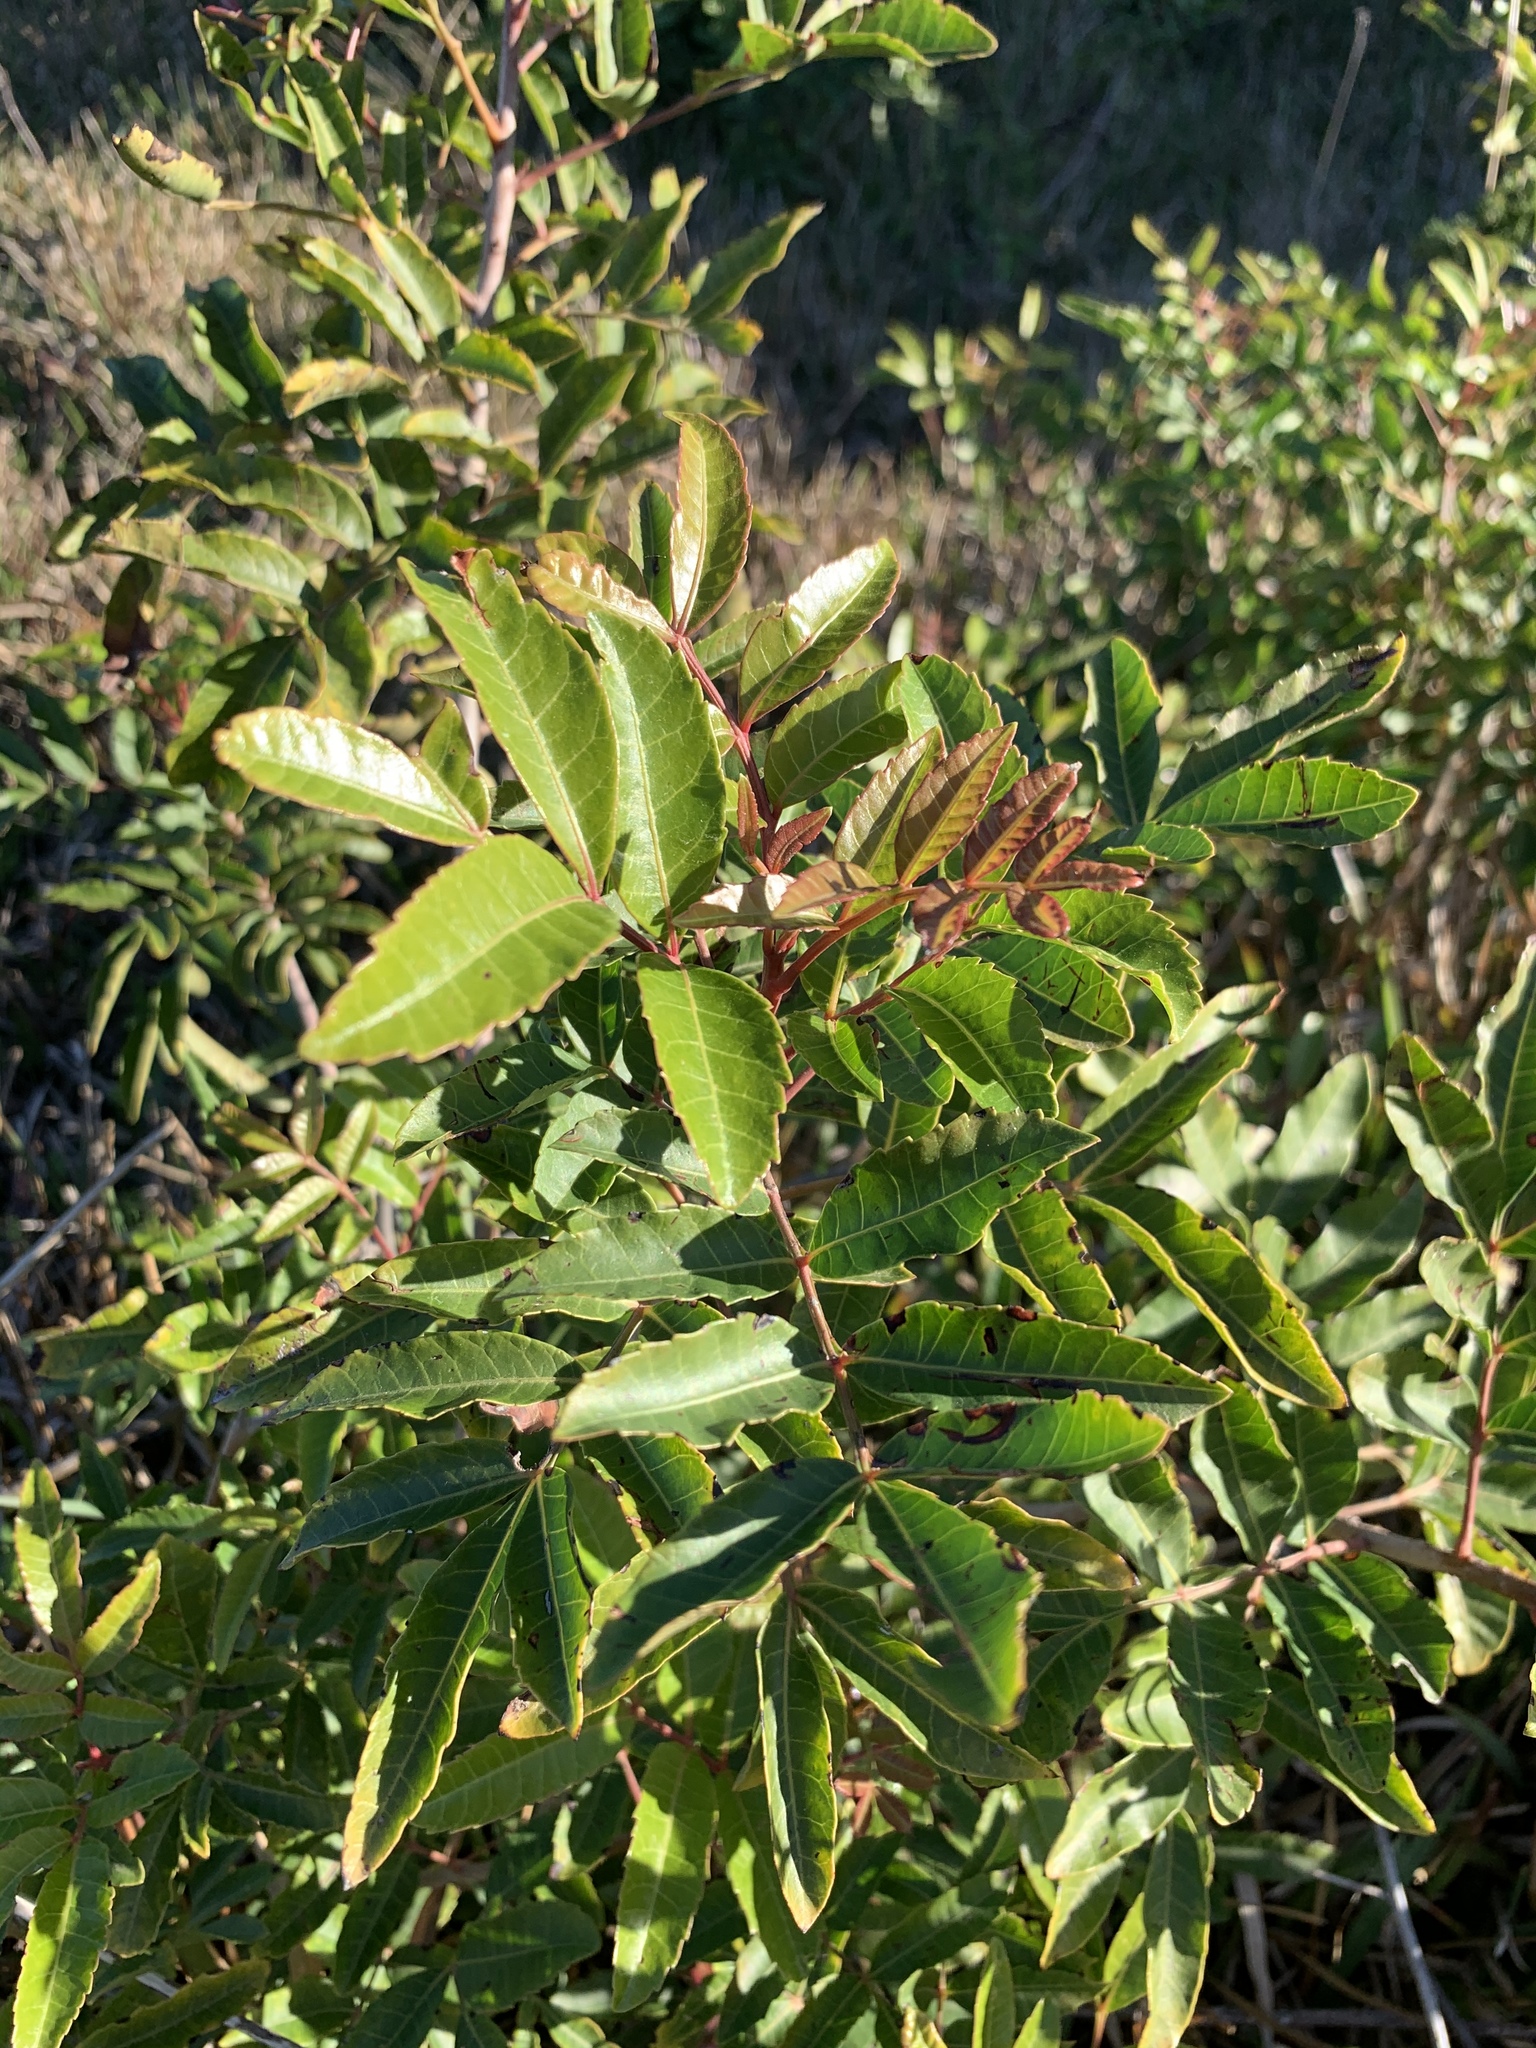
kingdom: Plantae
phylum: Tracheophyta
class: Magnoliopsida
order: Sapindales
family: Anacardiaceae
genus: Schinus
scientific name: Schinus terebinthifolia
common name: Brazilian peppertree
